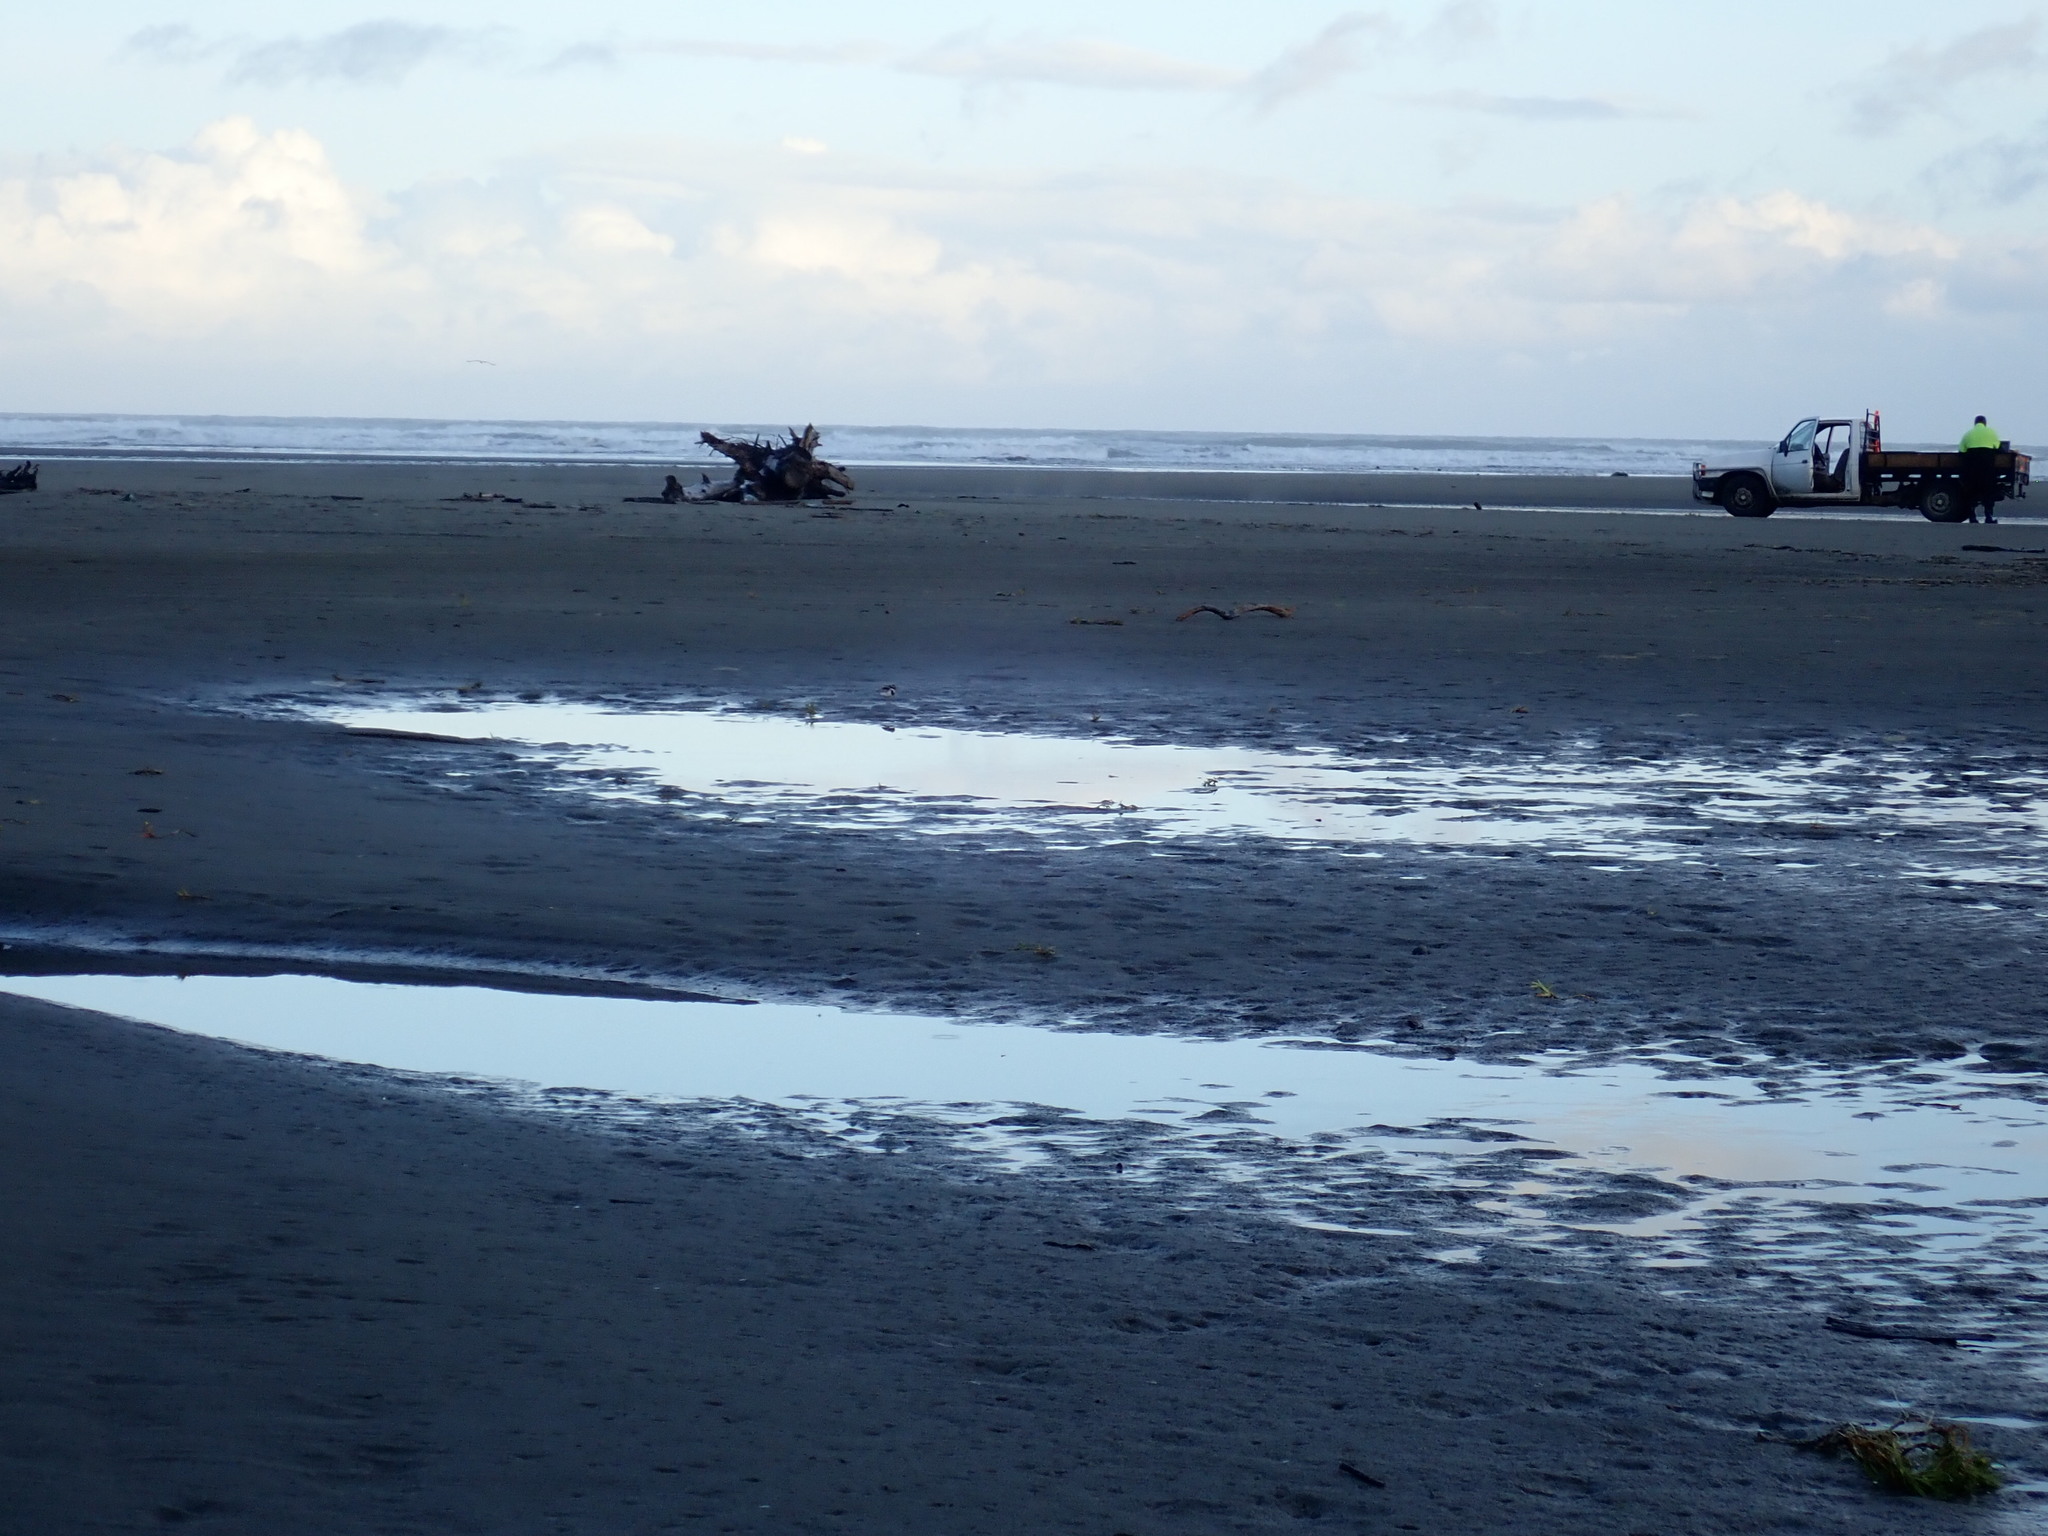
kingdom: Animalia
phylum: Chordata
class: Aves
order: Charadriiformes
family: Charadriidae
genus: Elseyornis
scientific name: Elseyornis melanops
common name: Black-fronted dotterel
